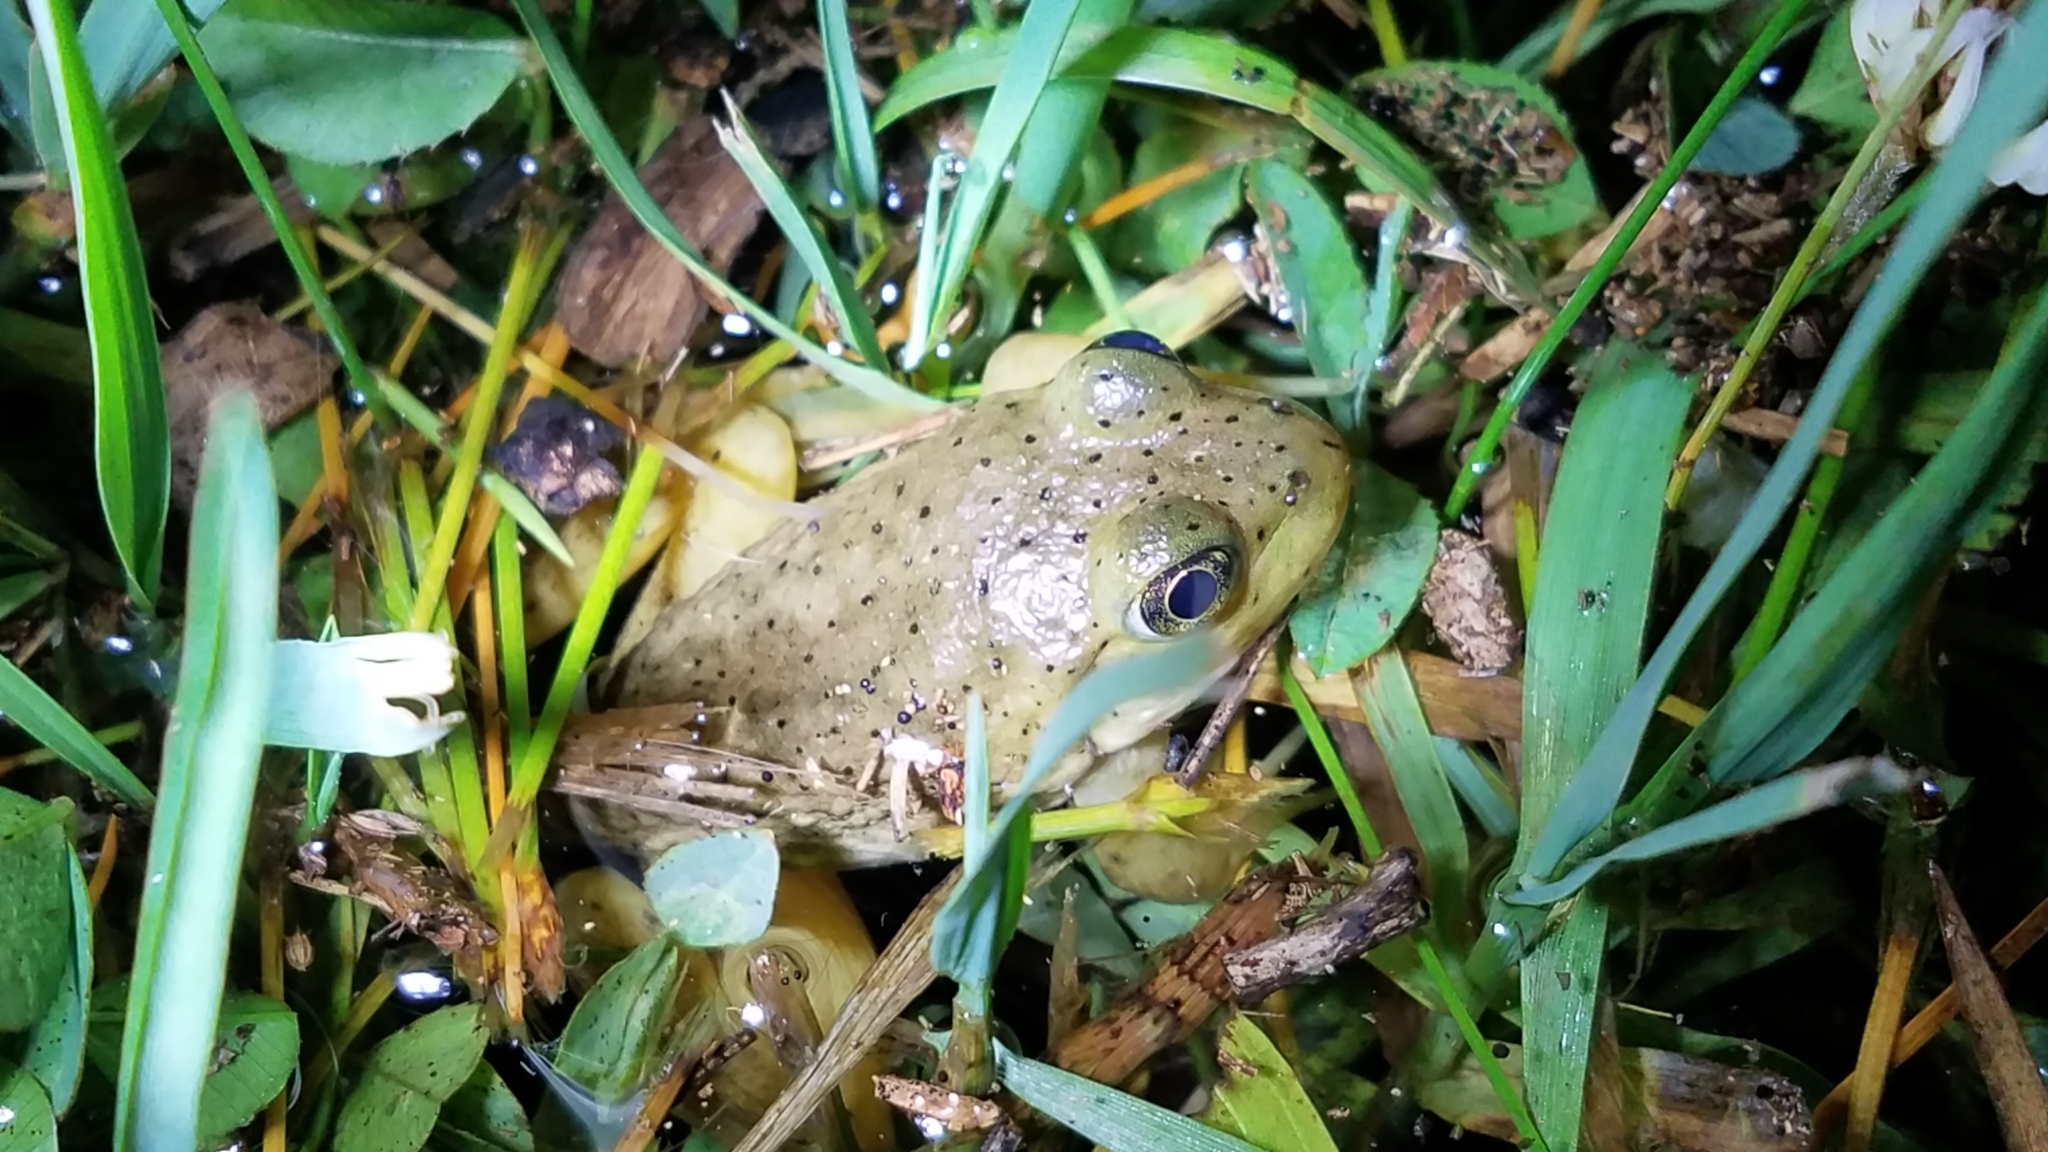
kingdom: Animalia
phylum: Chordata
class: Amphibia
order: Anura
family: Ranidae
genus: Lithobates
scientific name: Lithobates catesbeianus
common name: American bullfrog
